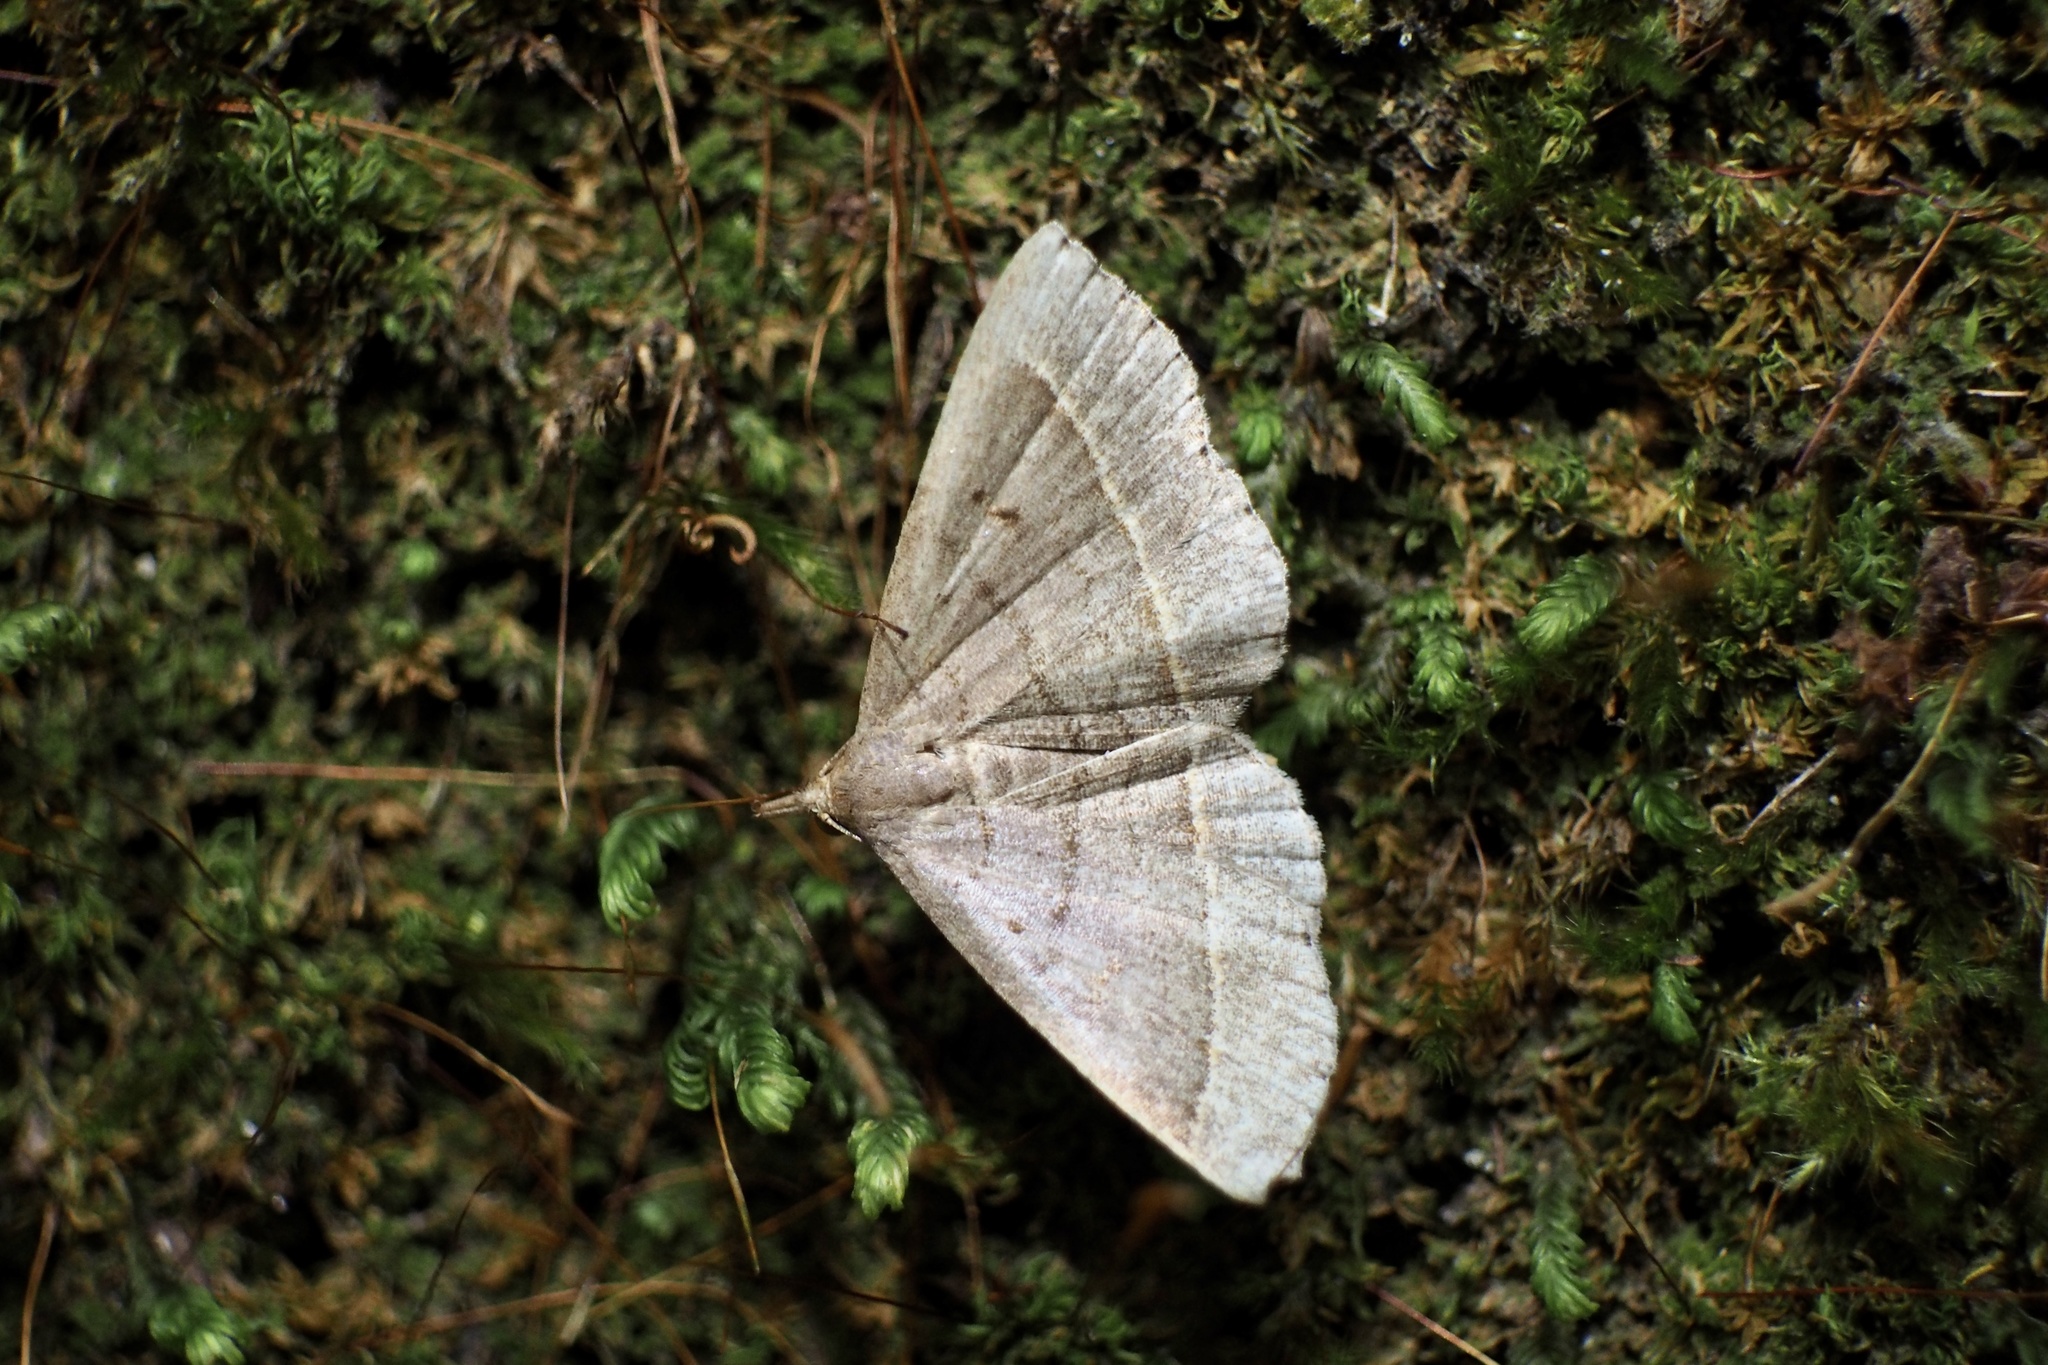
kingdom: Animalia
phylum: Arthropoda
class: Insecta
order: Lepidoptera
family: Erebidae
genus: Paracolax
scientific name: Paracolax trilinealis
